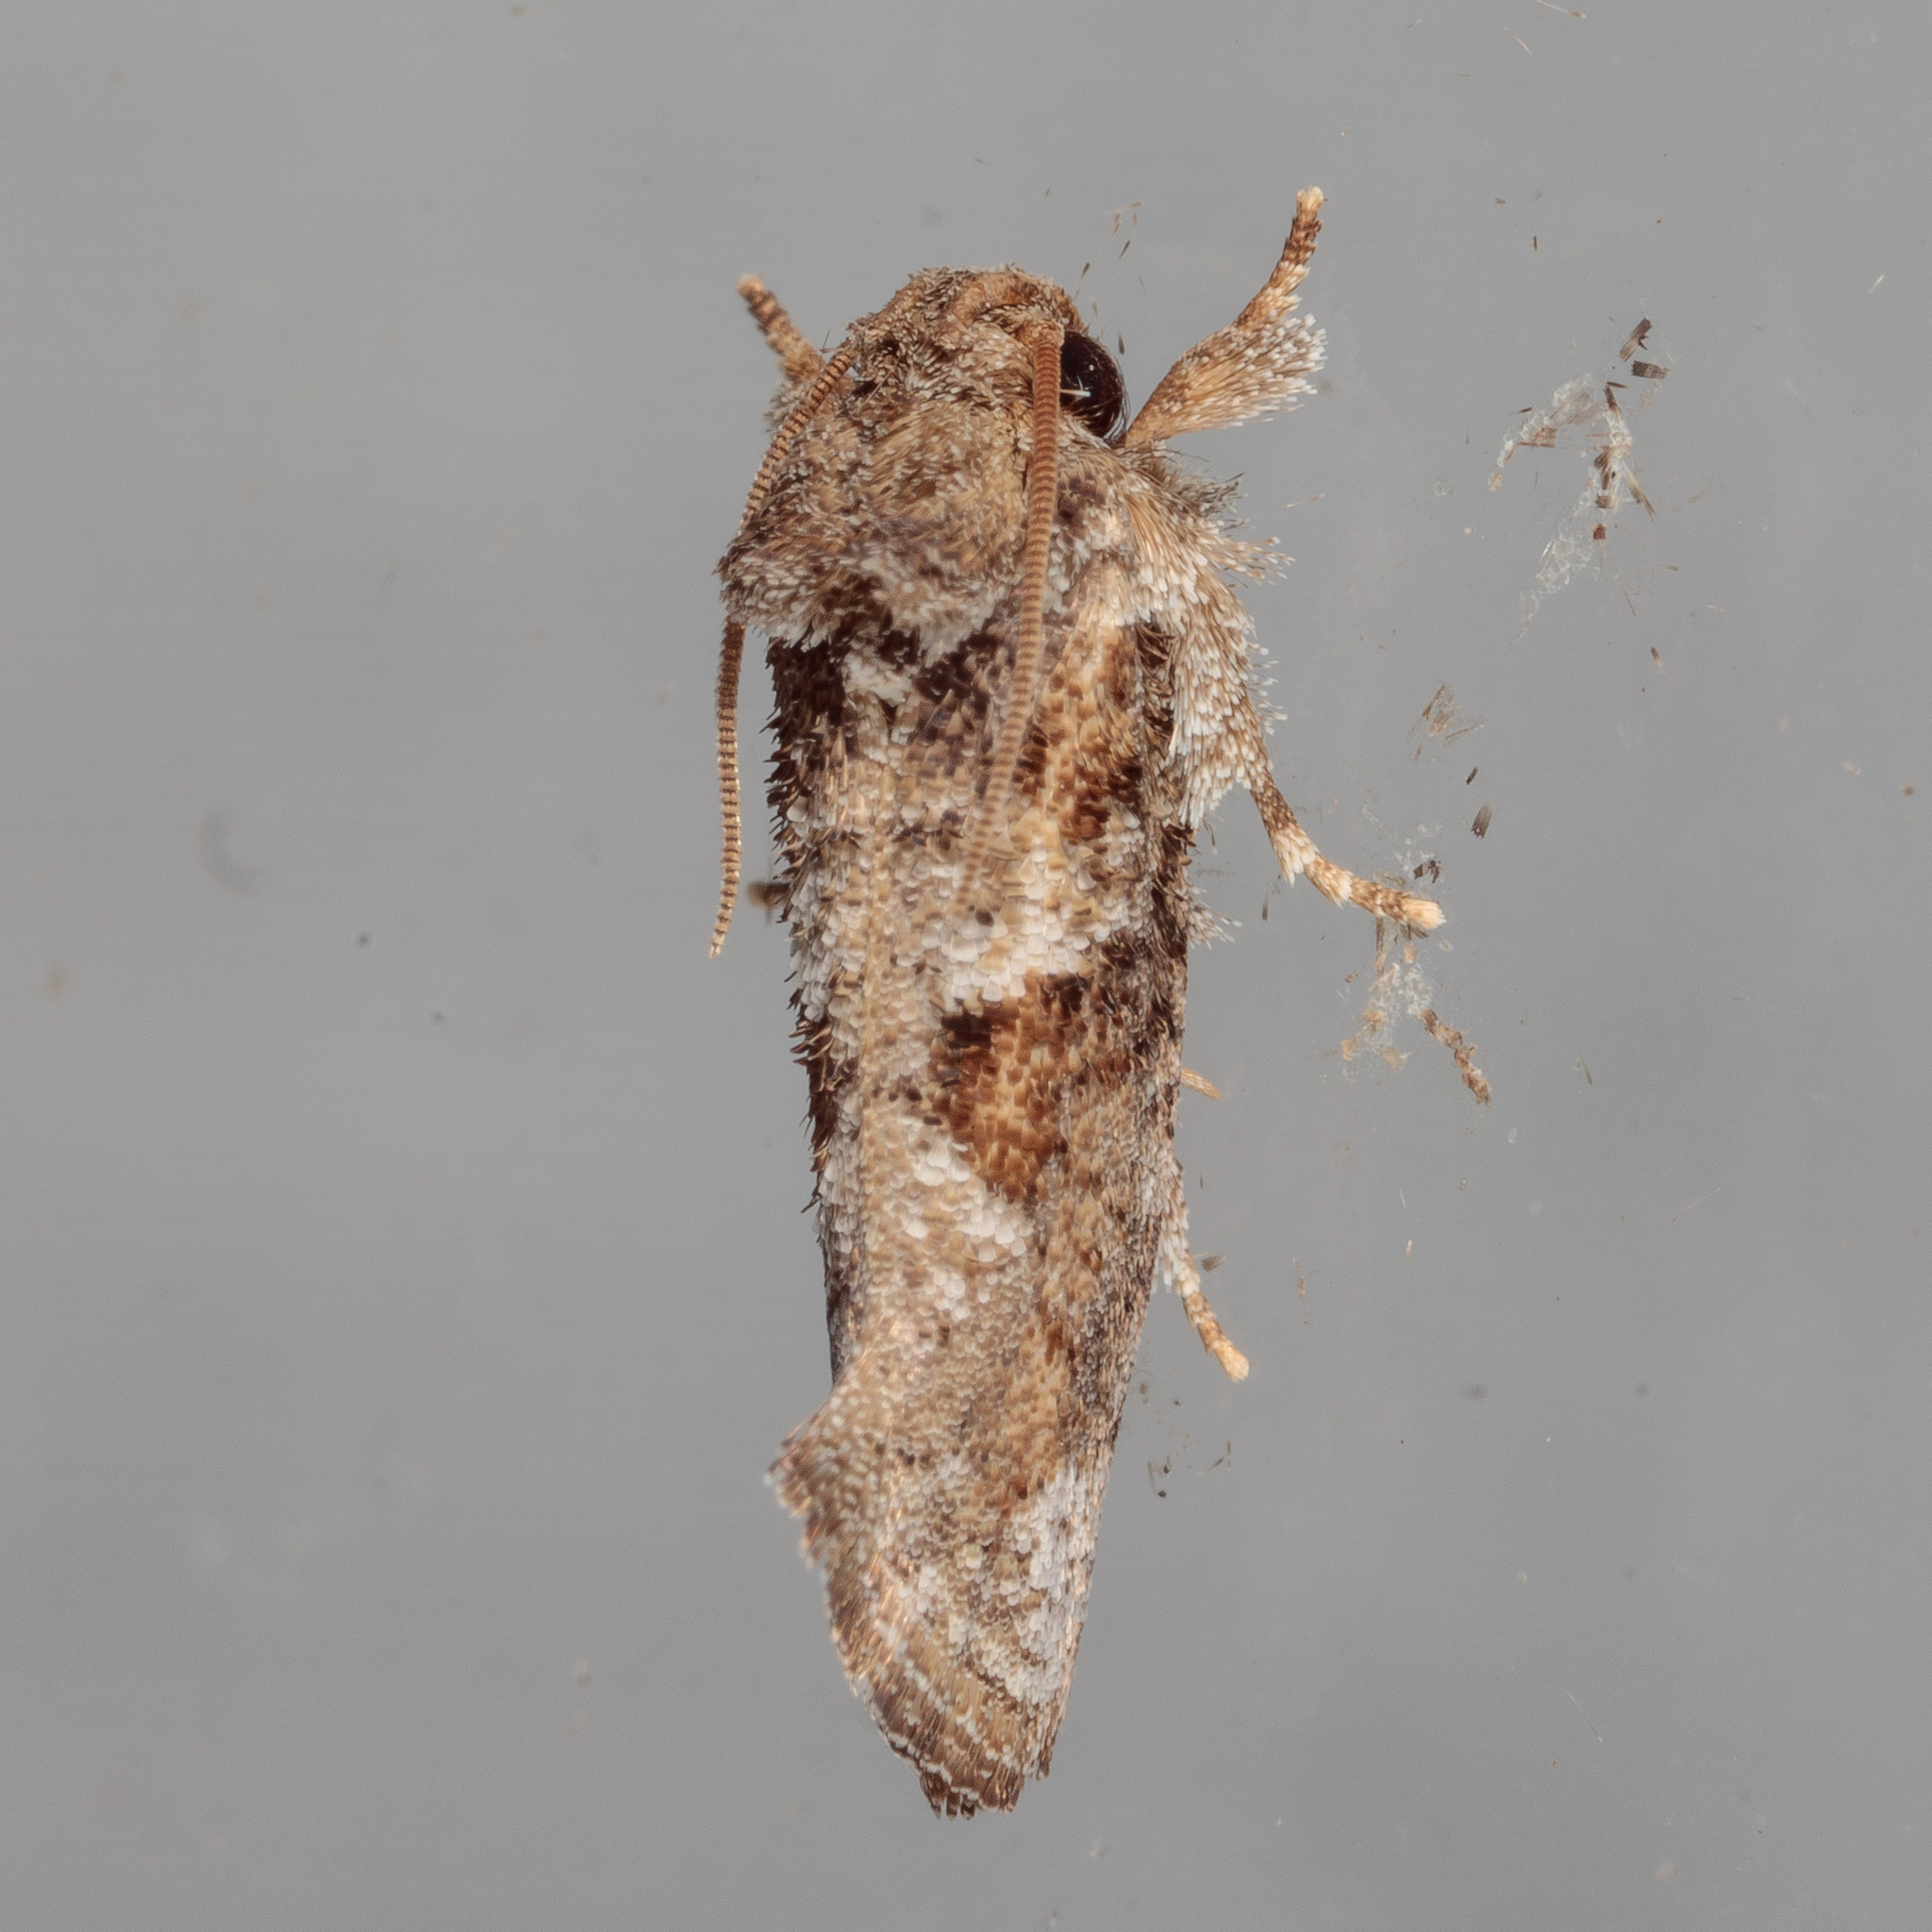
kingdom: Animalia
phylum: Arthropoda
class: Insecta
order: Lepidoptera
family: Tineidae
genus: Acrolophus
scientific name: Acrolophus piger
